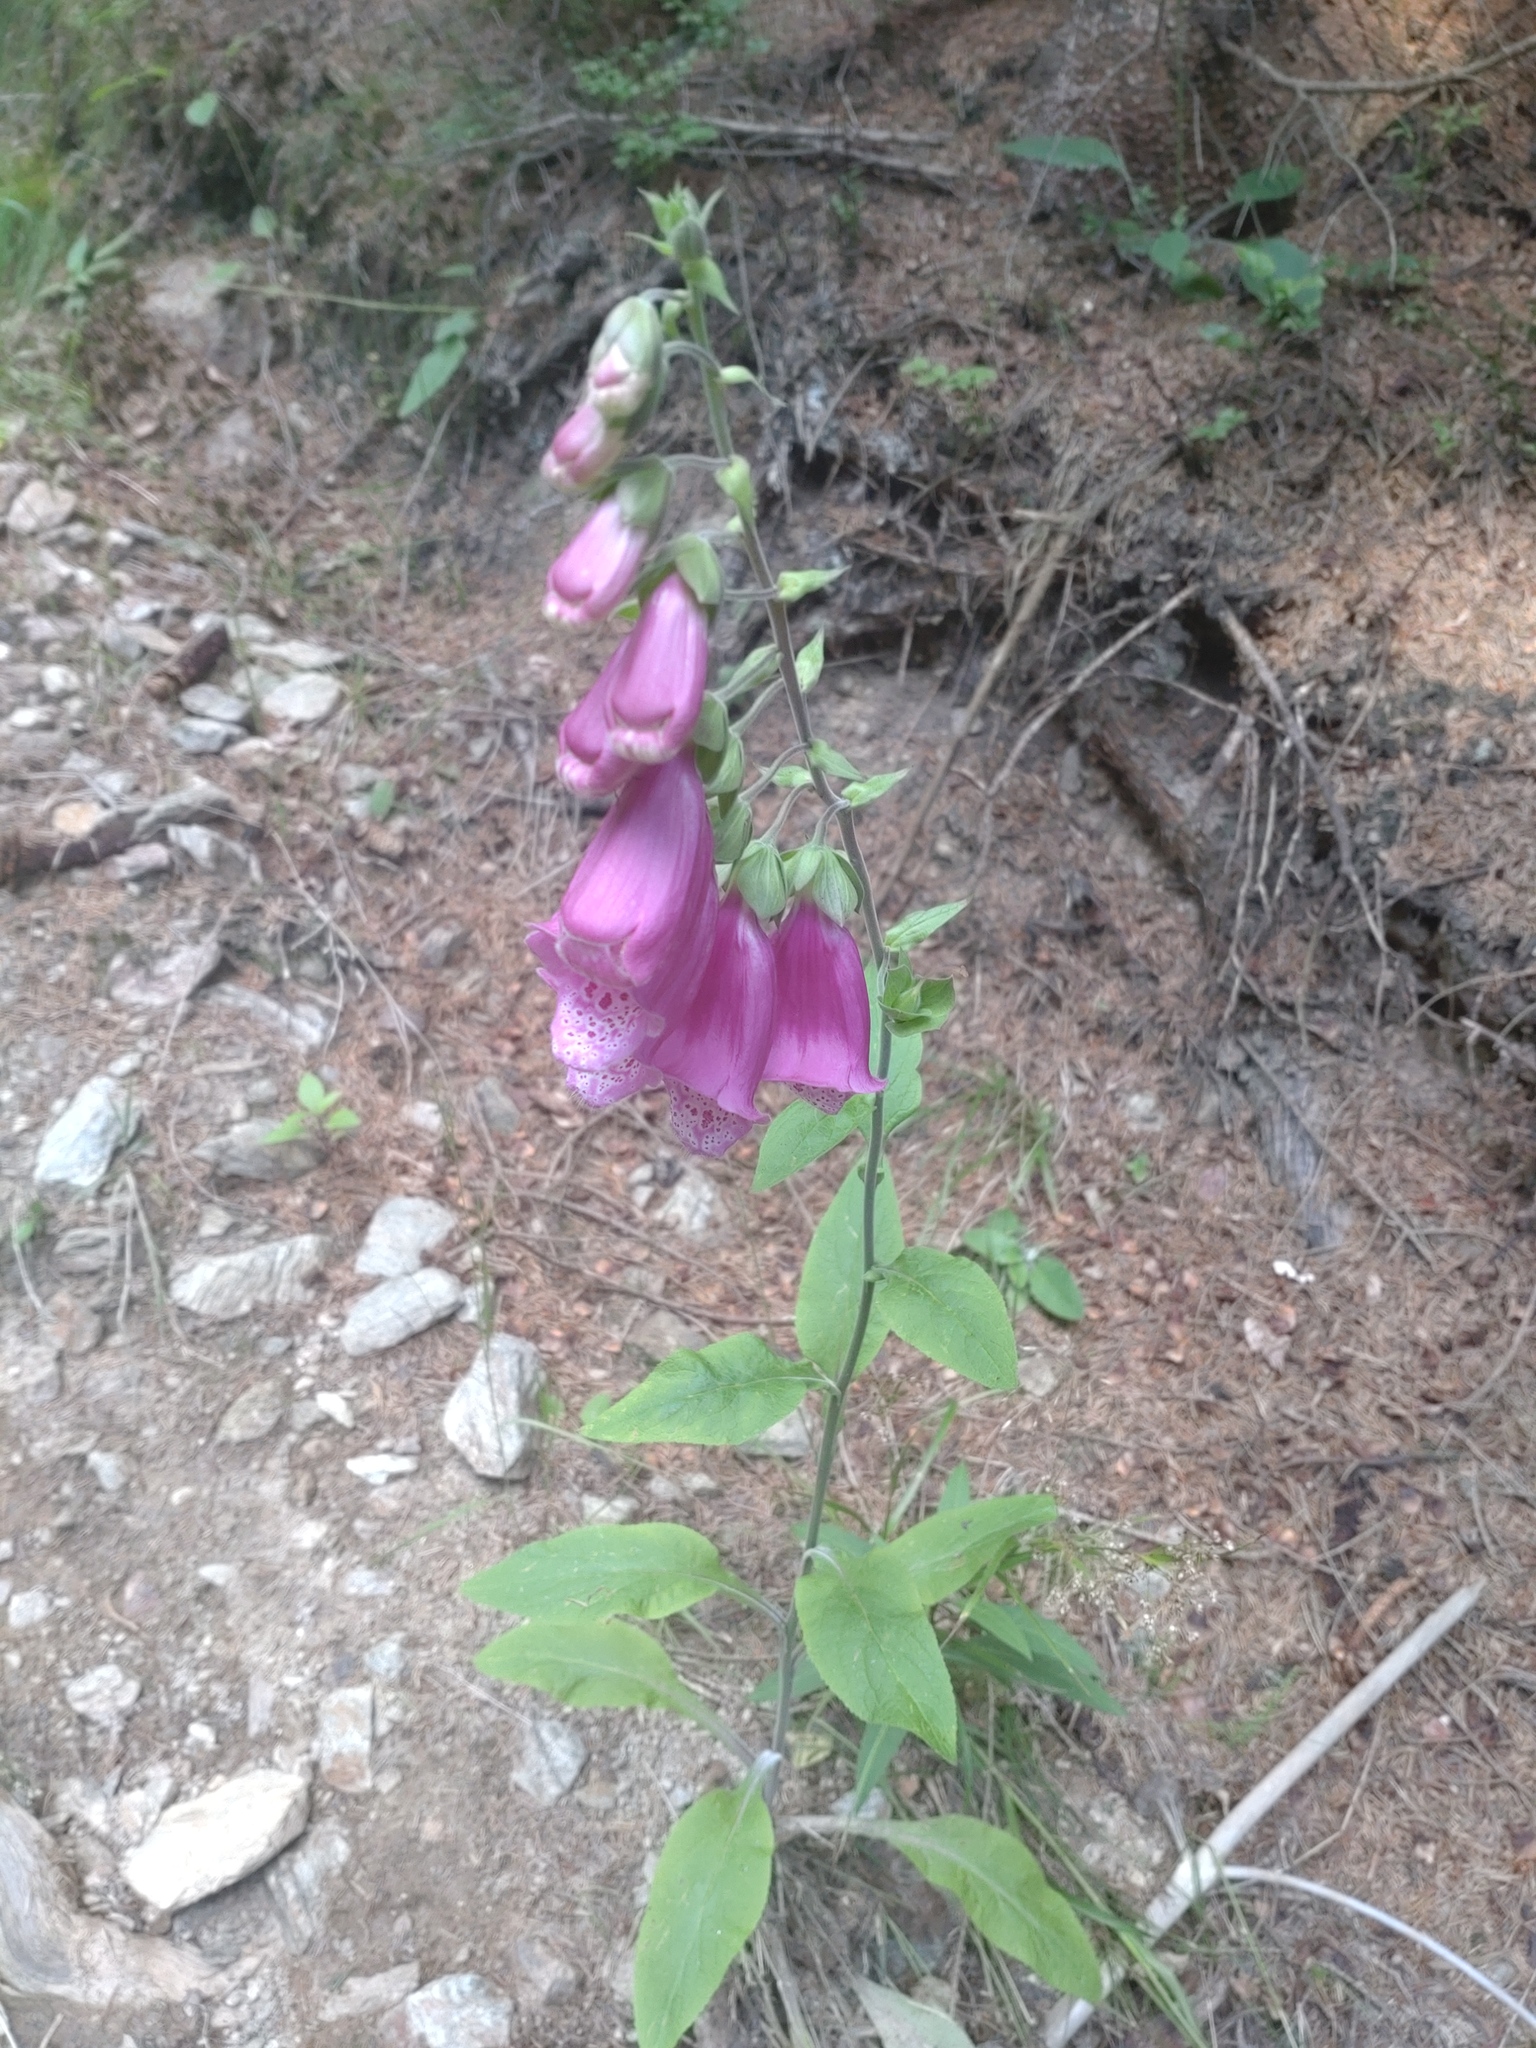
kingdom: Plantae
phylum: Tracheophyta
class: Magnoliopsida
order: Lamiales
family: Plantaginaceae
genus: Digitalis
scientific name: Digitalis purpurea
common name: Foxglove
